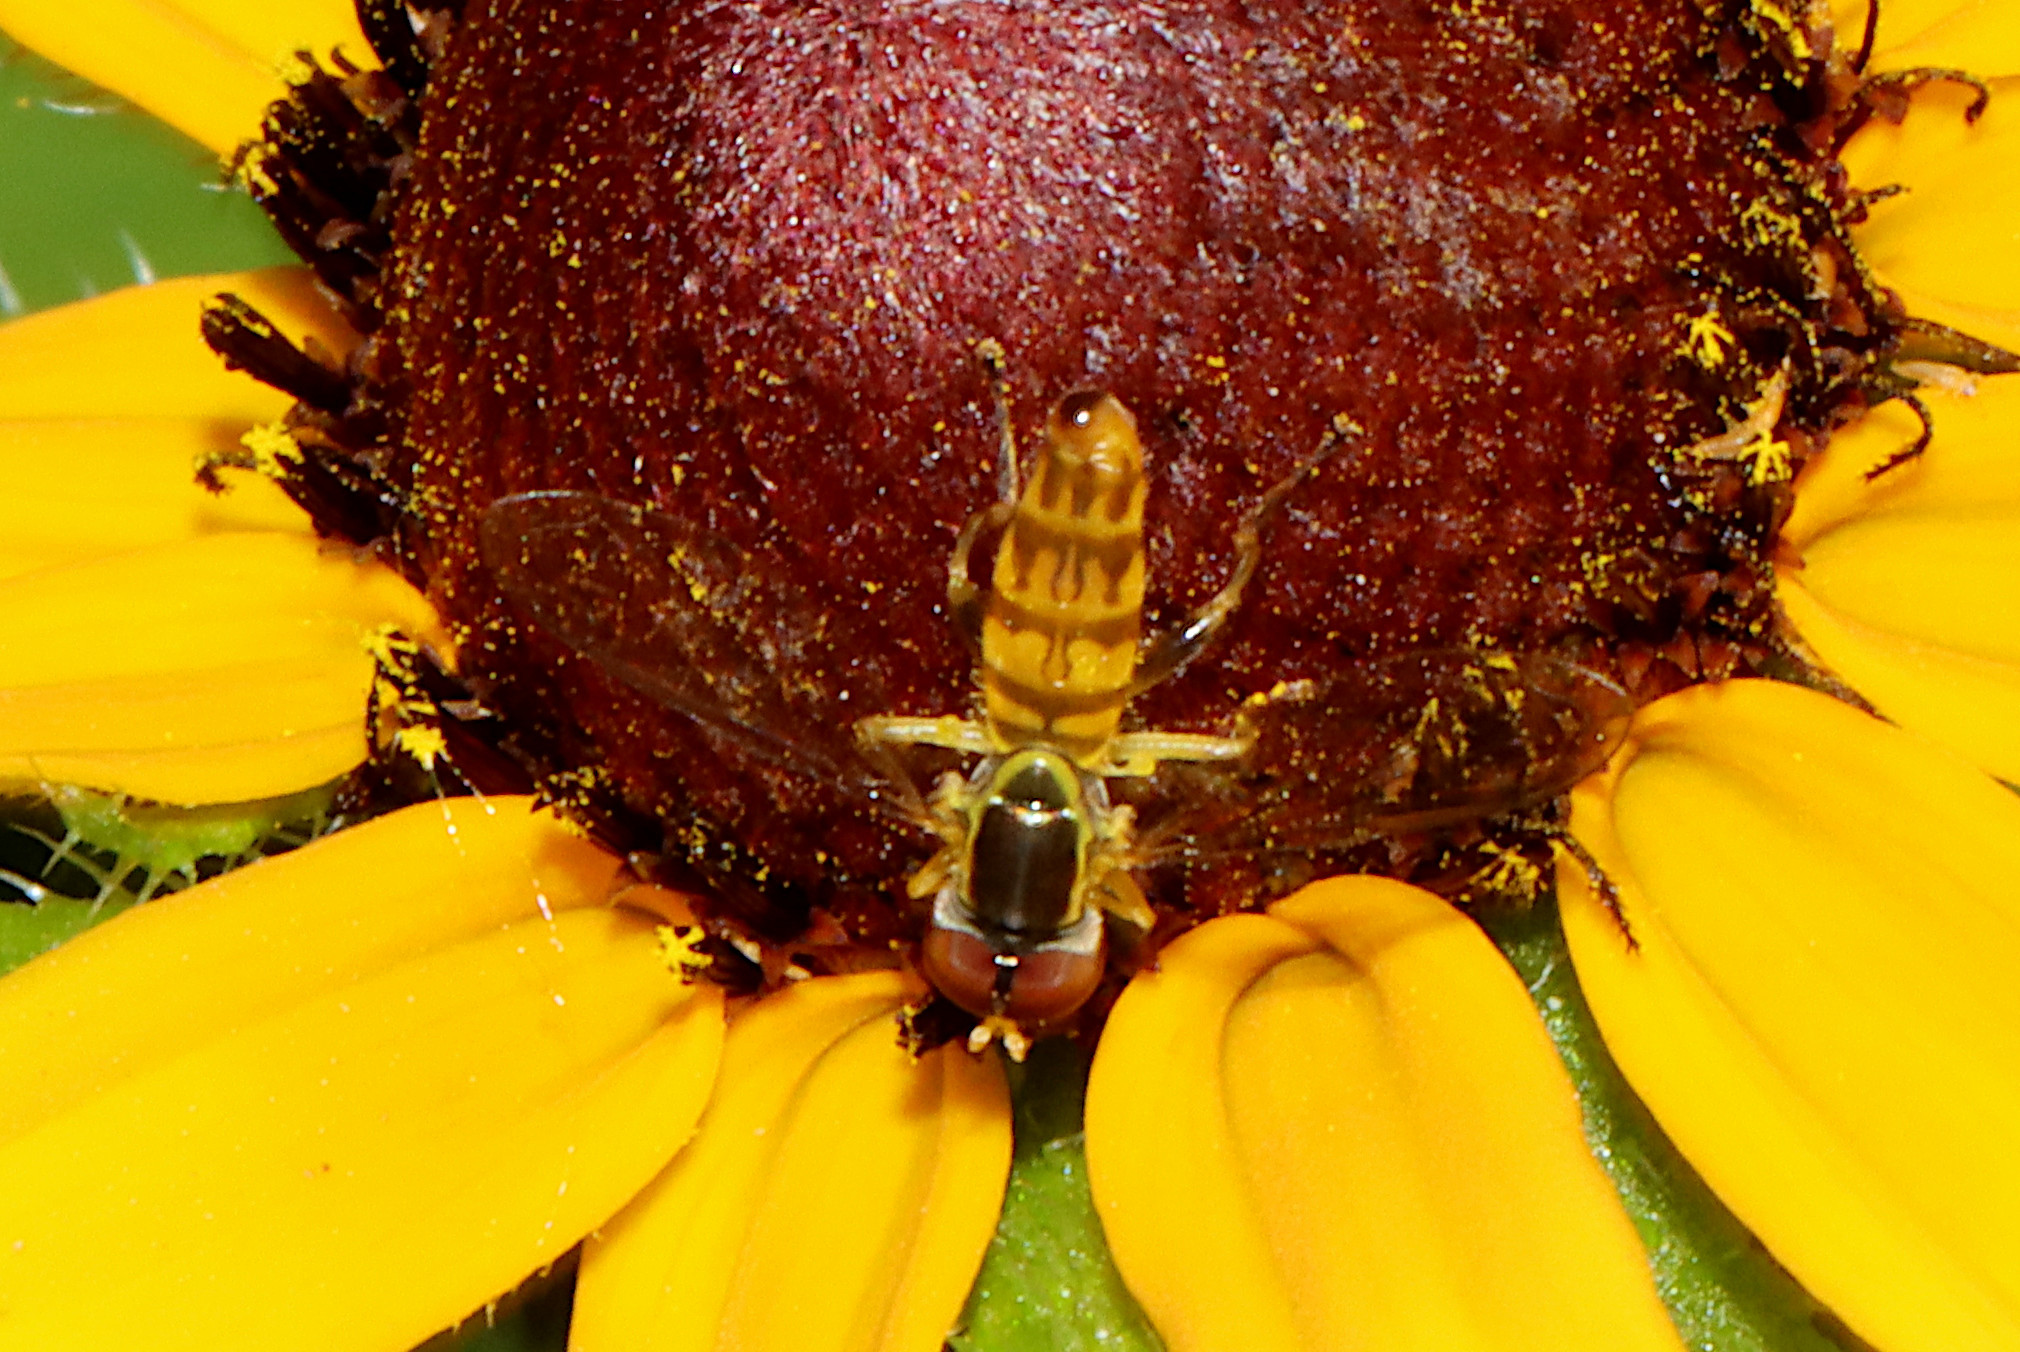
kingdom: Animalia
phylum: Arthropoda
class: Insecta
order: Diptera
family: Syrphidae
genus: Toxomerus
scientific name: Toxomerus geminatus
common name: Eastern calligrapher
